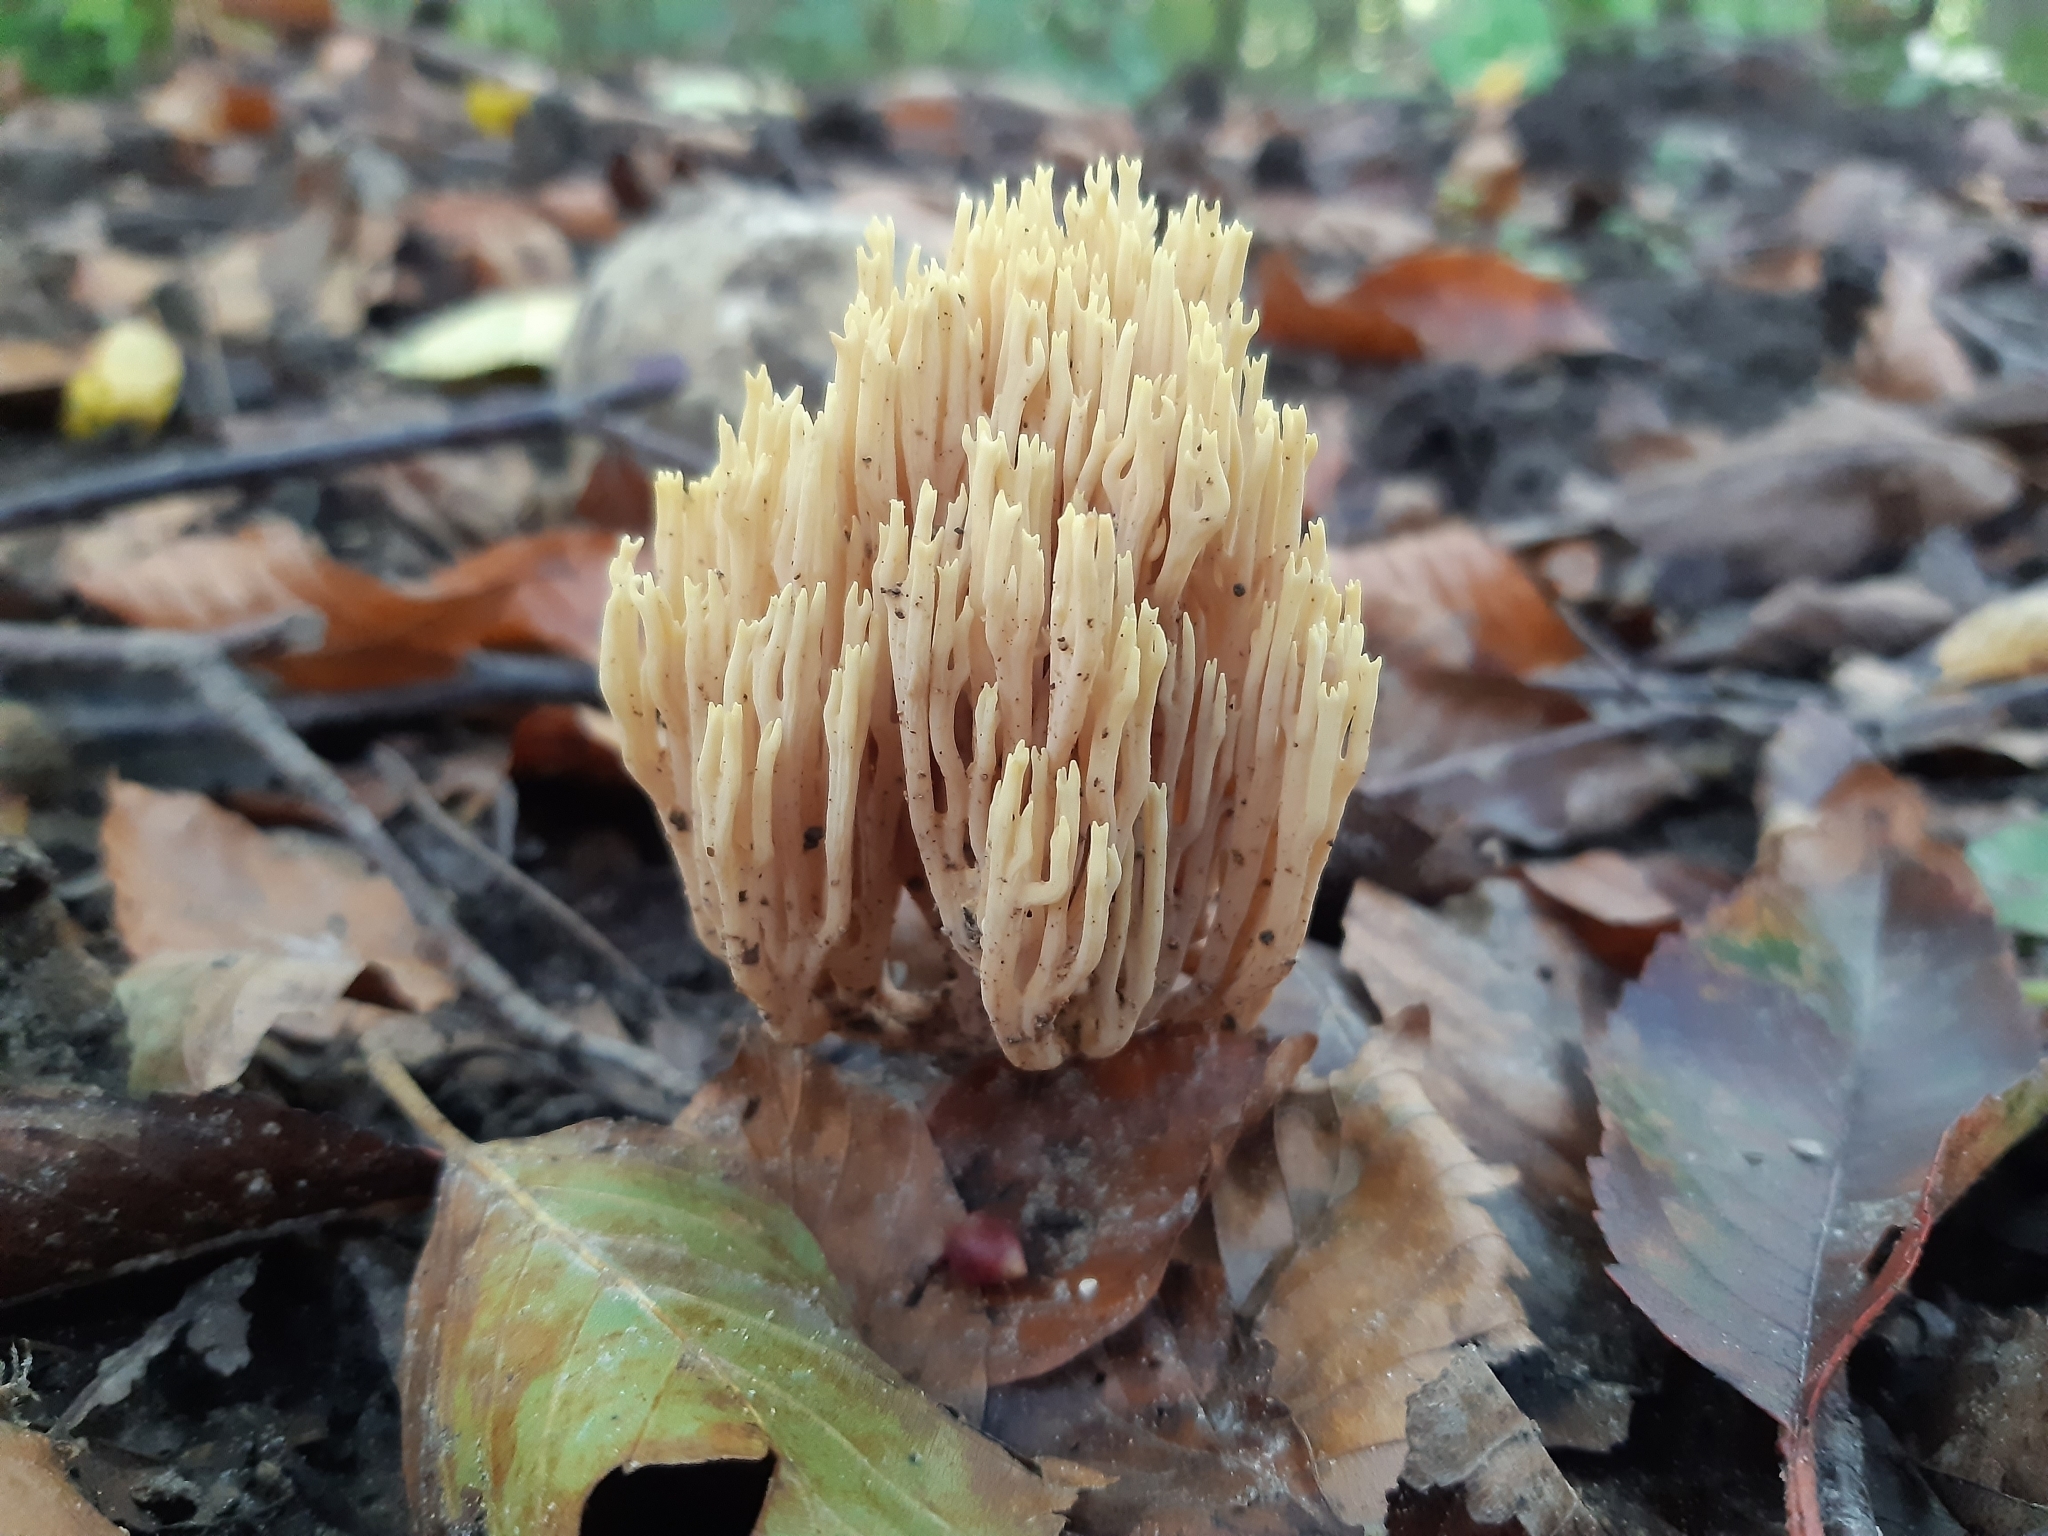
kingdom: Fungi
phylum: Basidiomycota
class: Agaricomycetes
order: Gomphales
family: Gomphaceae
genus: Ramaria
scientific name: Ramaria stricta
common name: Upright coral
